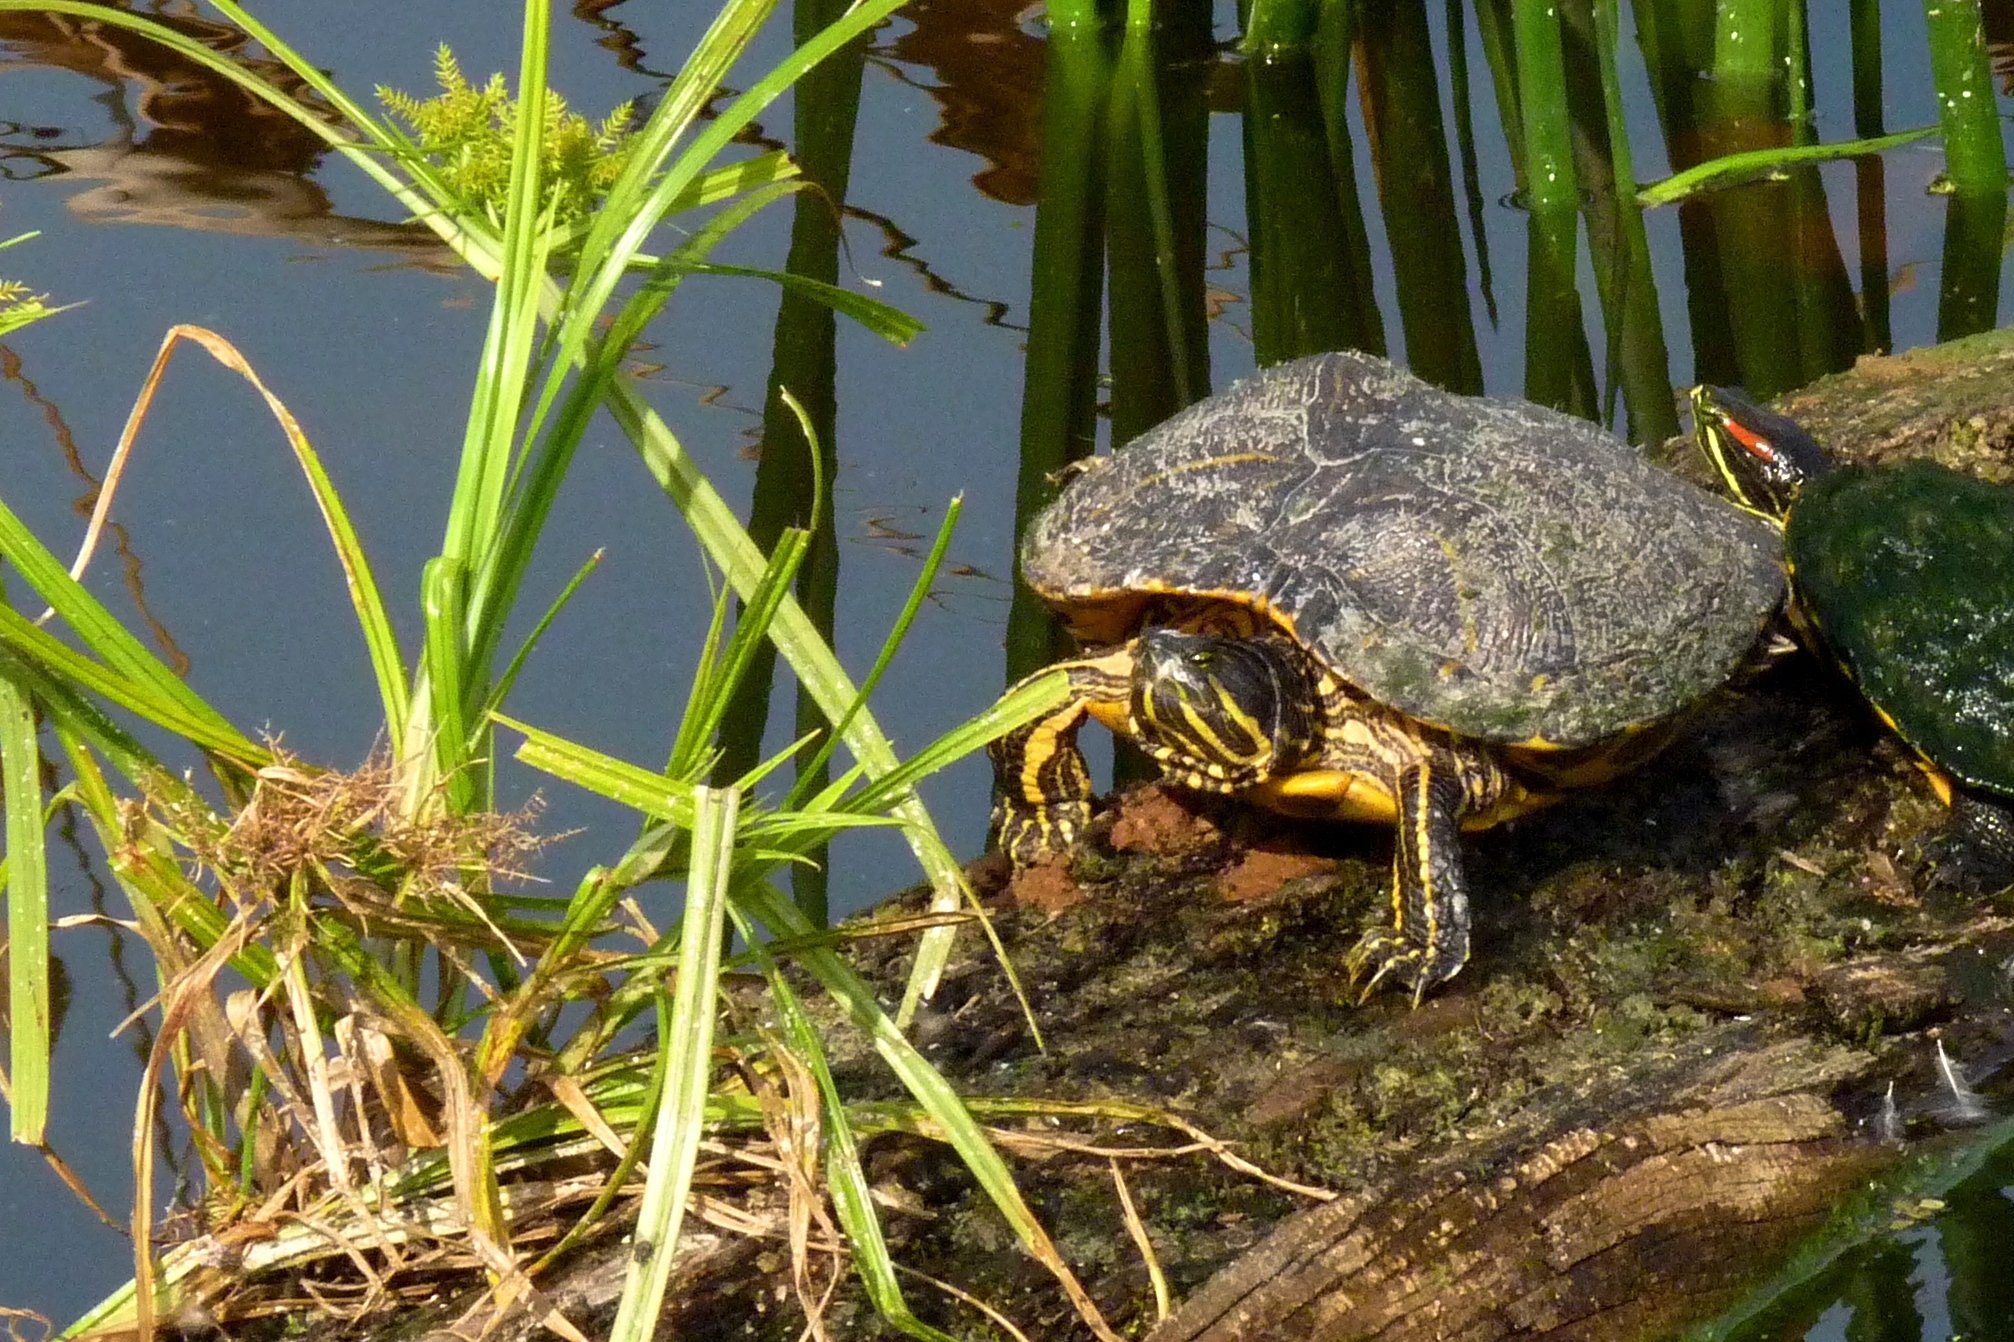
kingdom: Animalia
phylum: Chordata
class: Testudines
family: Emydidae
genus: Trachemys
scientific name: Trachemys scripta
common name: Slider
